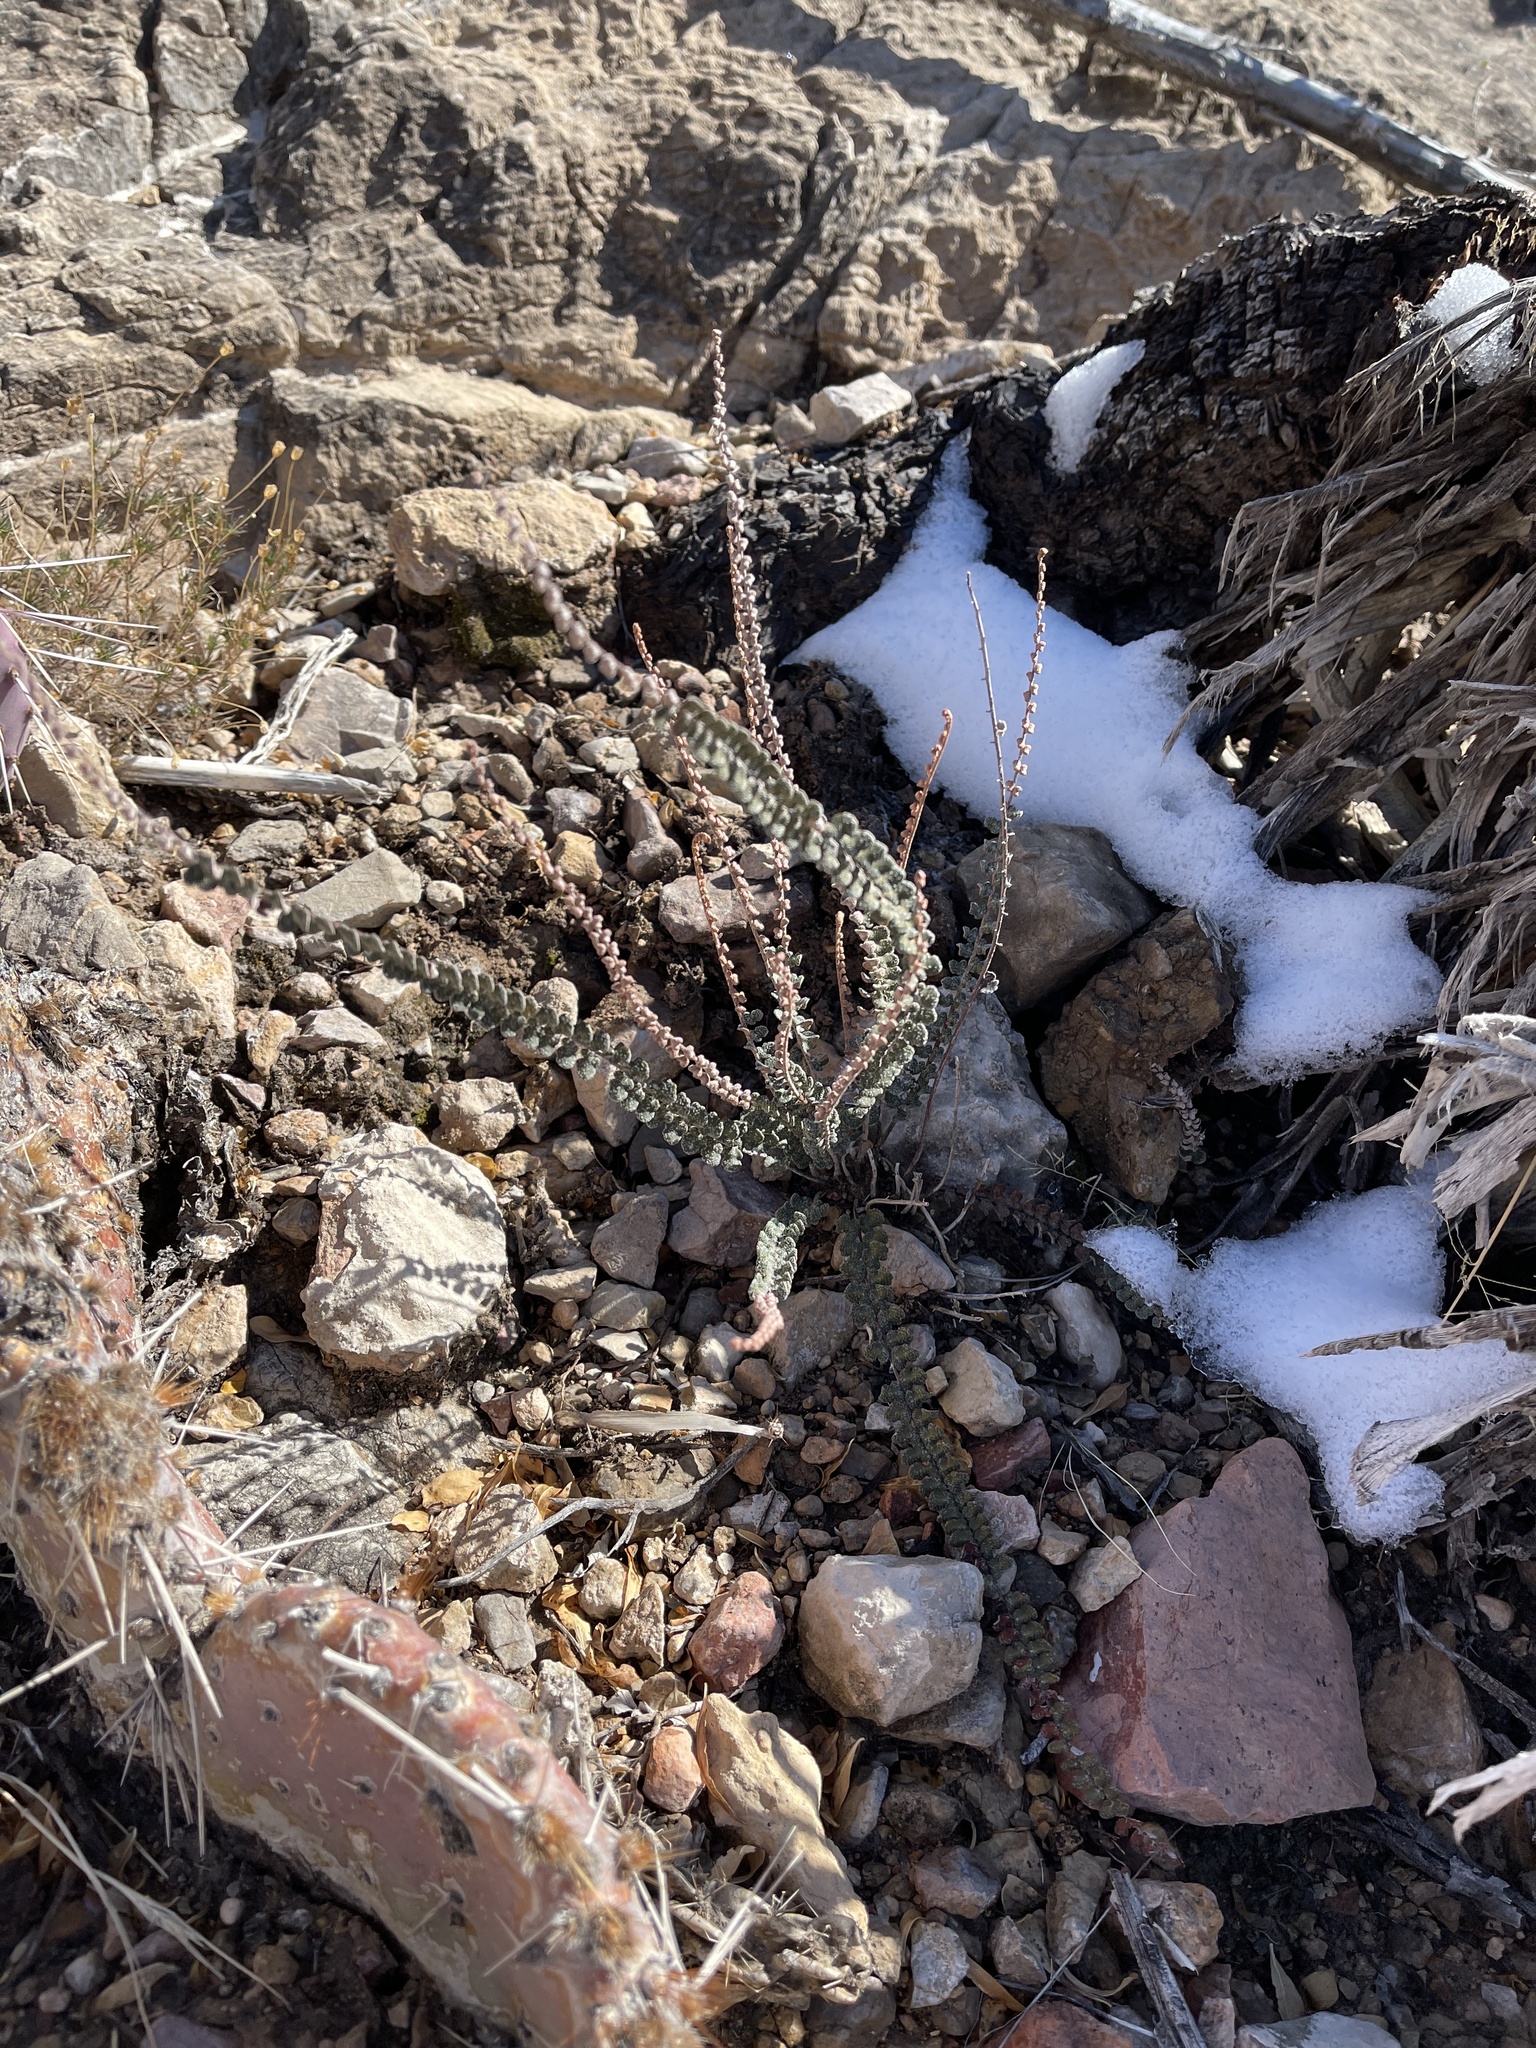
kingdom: Plantae
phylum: Tracheophyta
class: Polypodiopsida
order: Polypodiales
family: Pteridaceae
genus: Astrolepis
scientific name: Astrolepis cochisensis
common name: Scaly cloak fern
